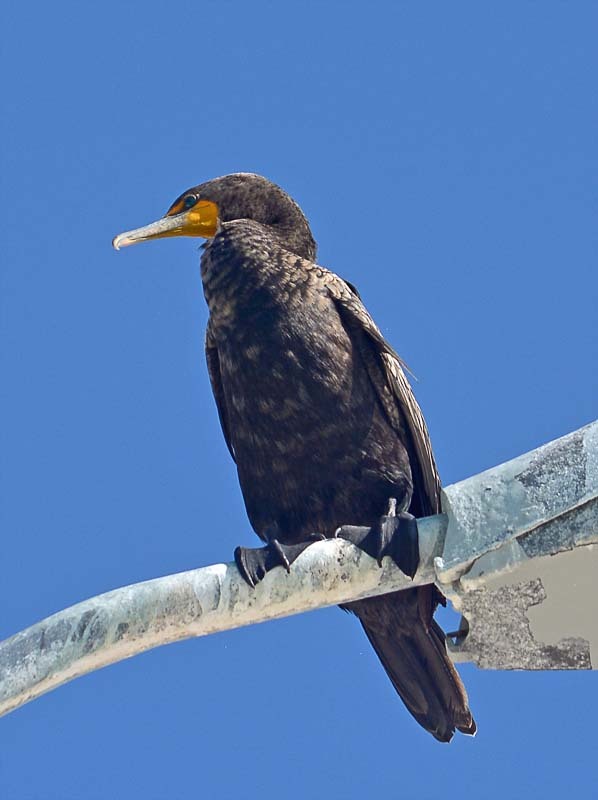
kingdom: Animalia
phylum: Chordata
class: Aves
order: Suliformes
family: Phalacrocoracidae
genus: Phalacrocorax
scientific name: Phalacrocorax auritus
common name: Double-crested cormorant
